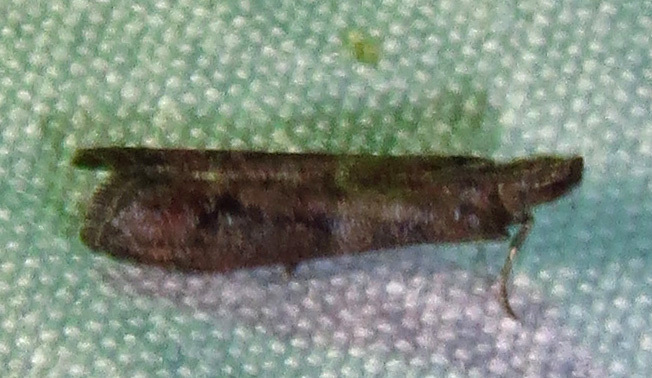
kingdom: Animalia
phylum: Arthropoda
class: Insecta
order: Lepidoptera
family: Pyralidae
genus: Ephestiodes
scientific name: Ephestiodes infimella
